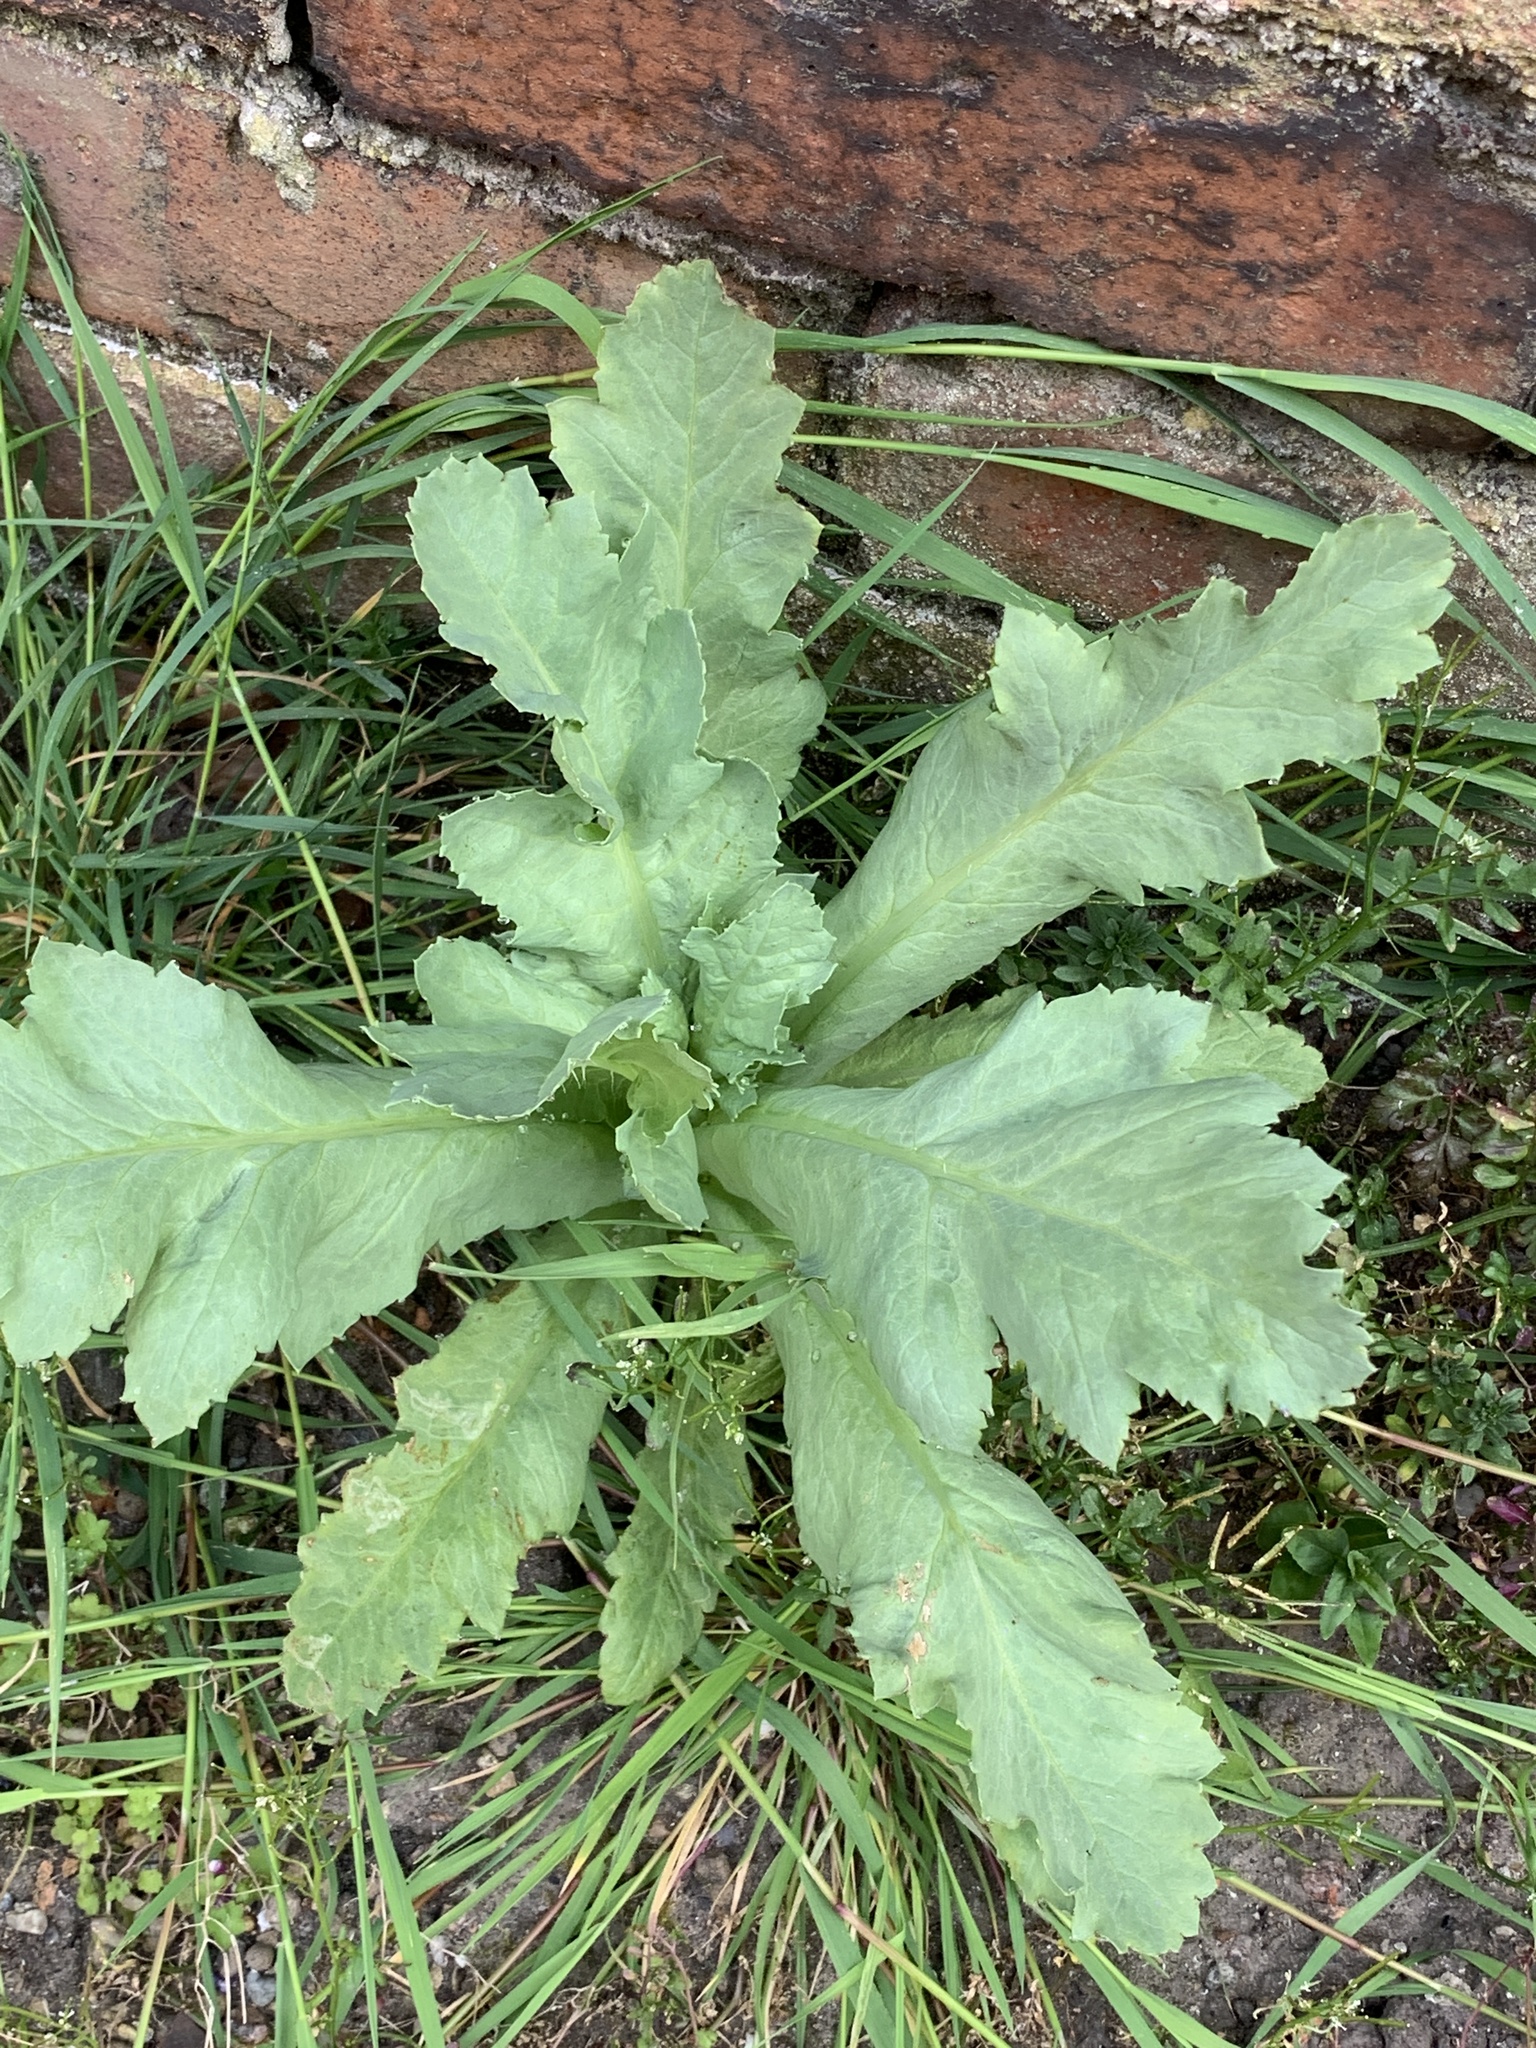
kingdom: Plantae
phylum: Tracheophyta
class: Magnoliopsida
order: Ranunculales
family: Papaveraceae
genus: Papaver
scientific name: Papaver somniferum
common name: Opium poppy
